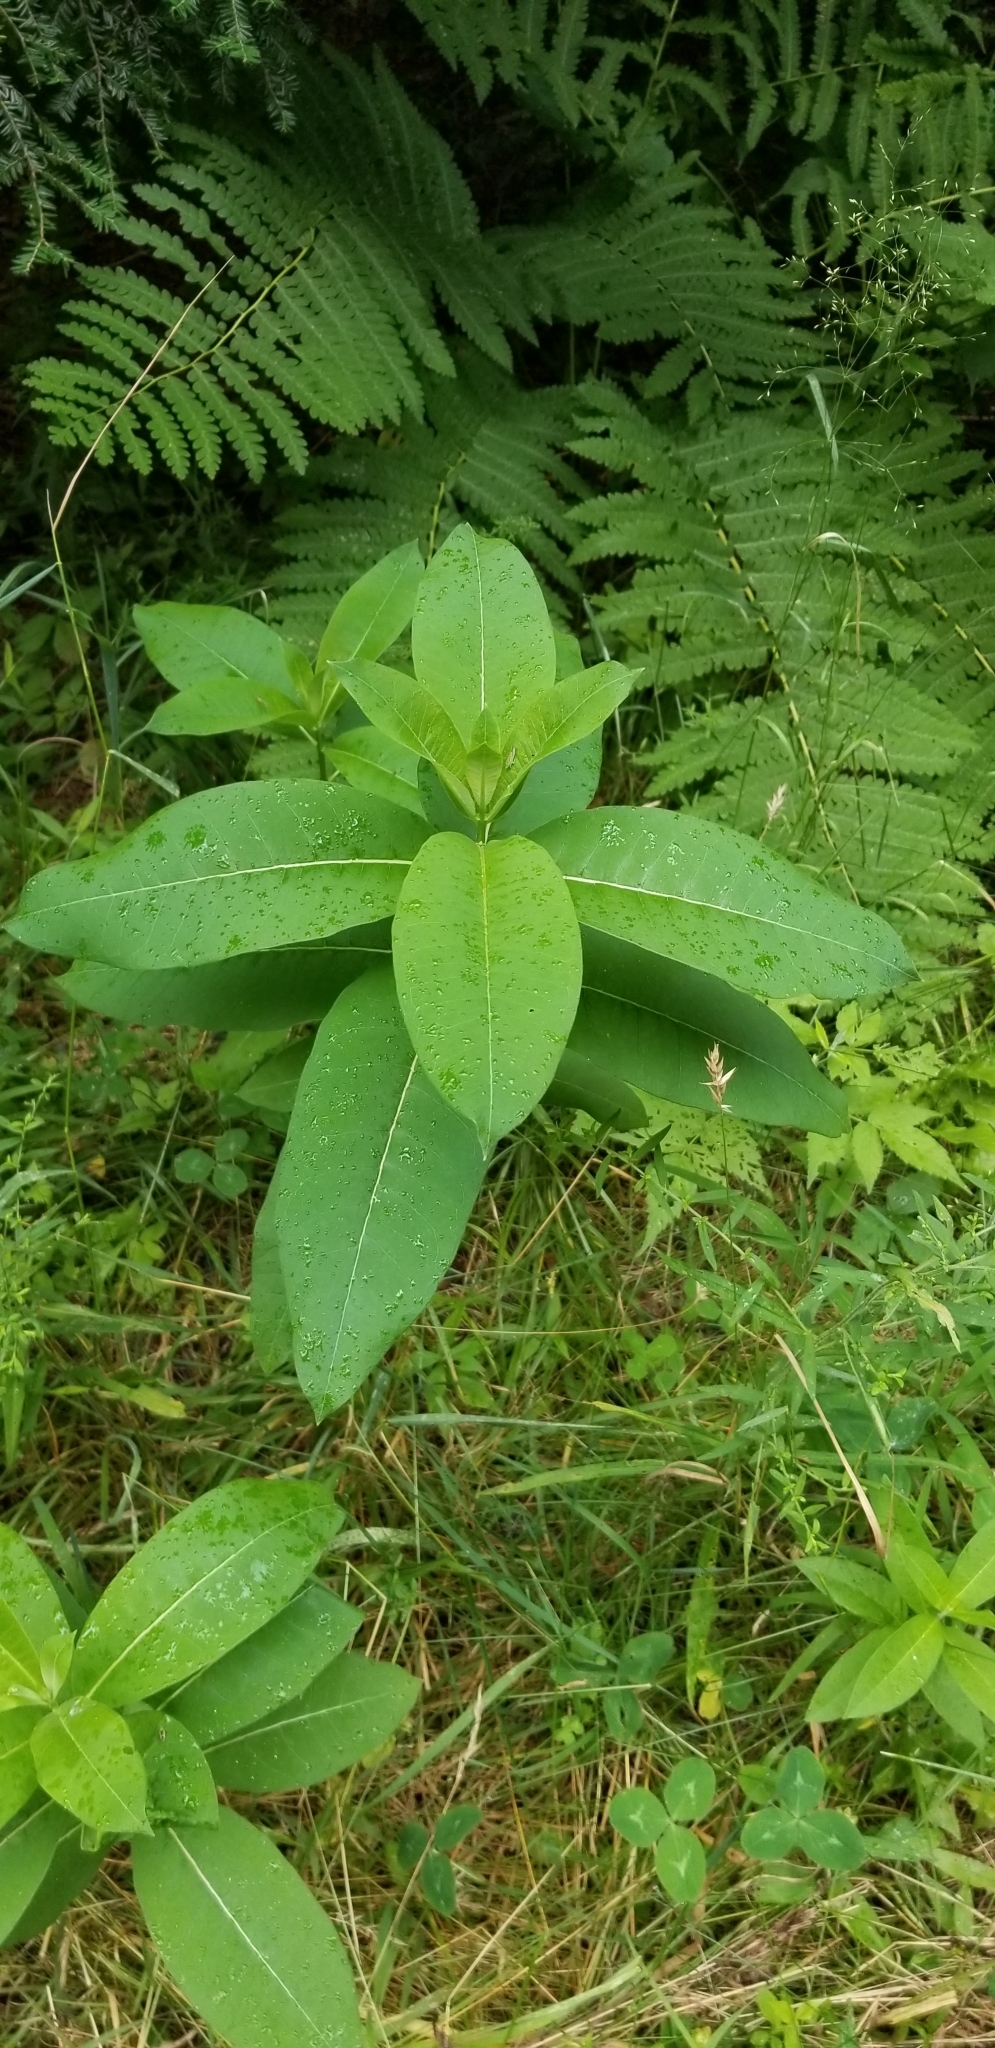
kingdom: Plantae
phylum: Tracheophyta
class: Magnoliopsida
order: Gentianales
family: Apocynaceae
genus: Asclepias
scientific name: Asclepias syriaca
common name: Common milkweed
